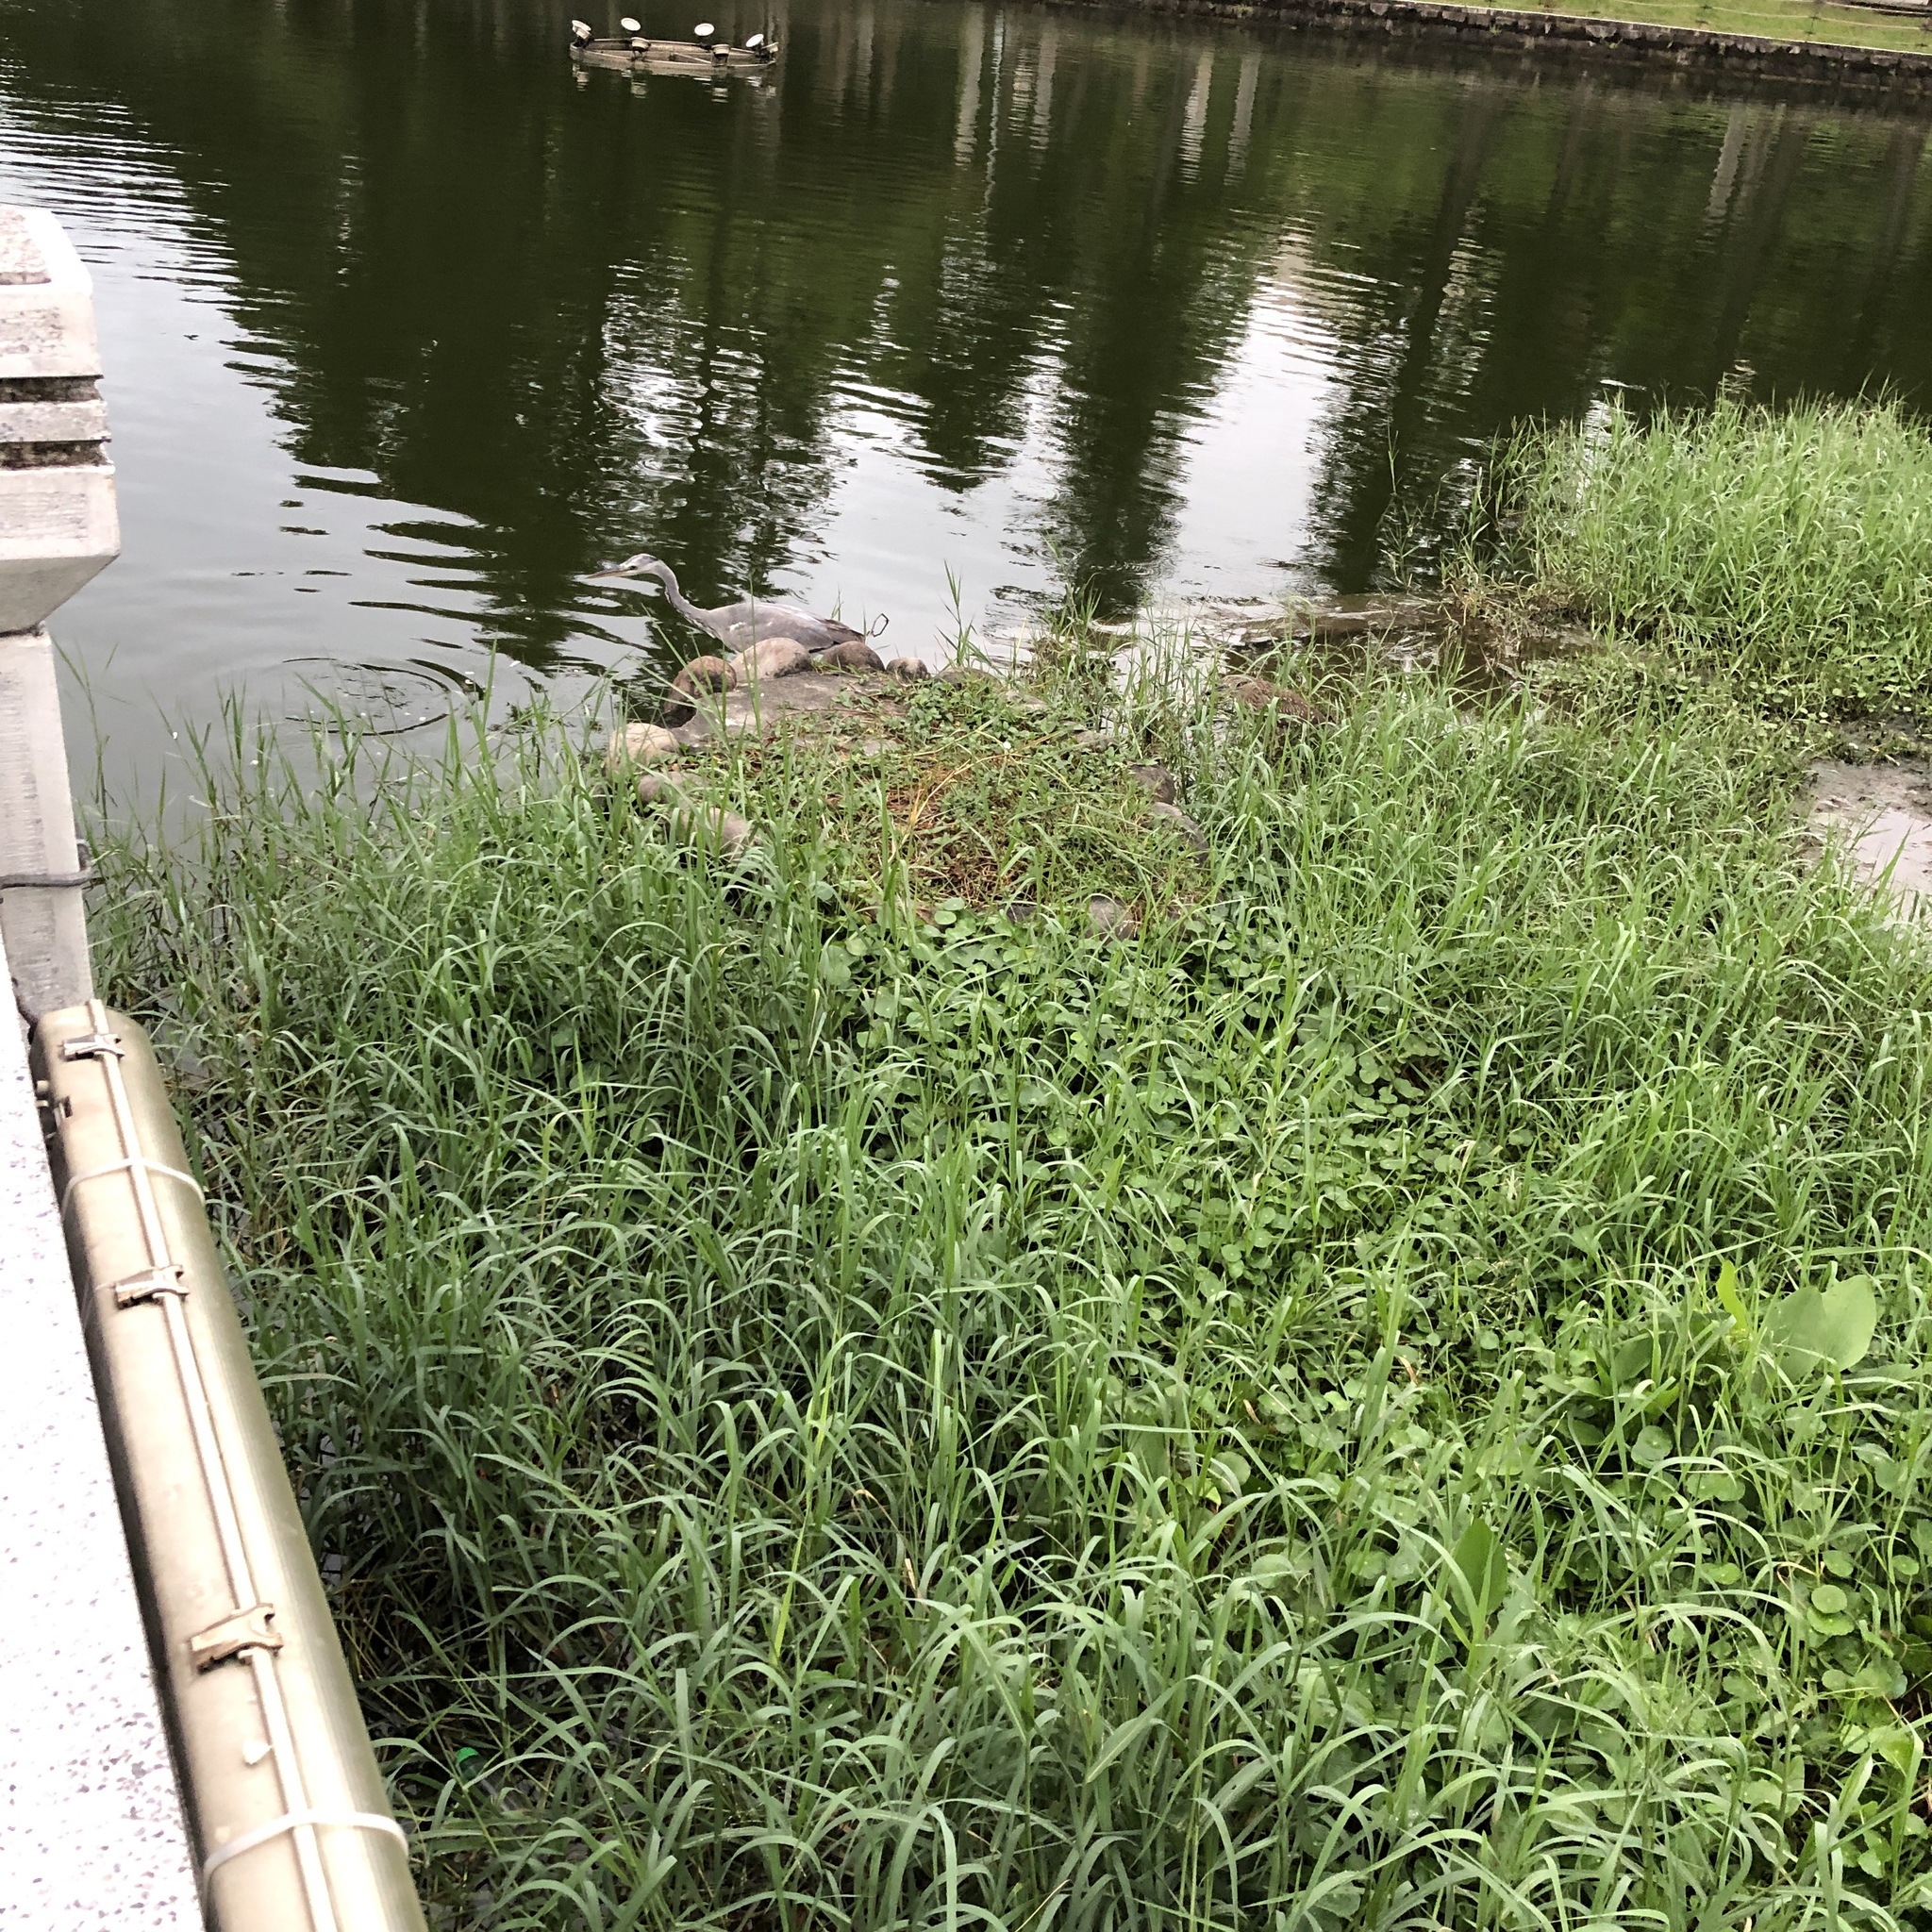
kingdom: Animalia
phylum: Chordata
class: Aves
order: Pelecaniformes
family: Ardeidae
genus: Ardea
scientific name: Ardea cinerea
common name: Grey heron
